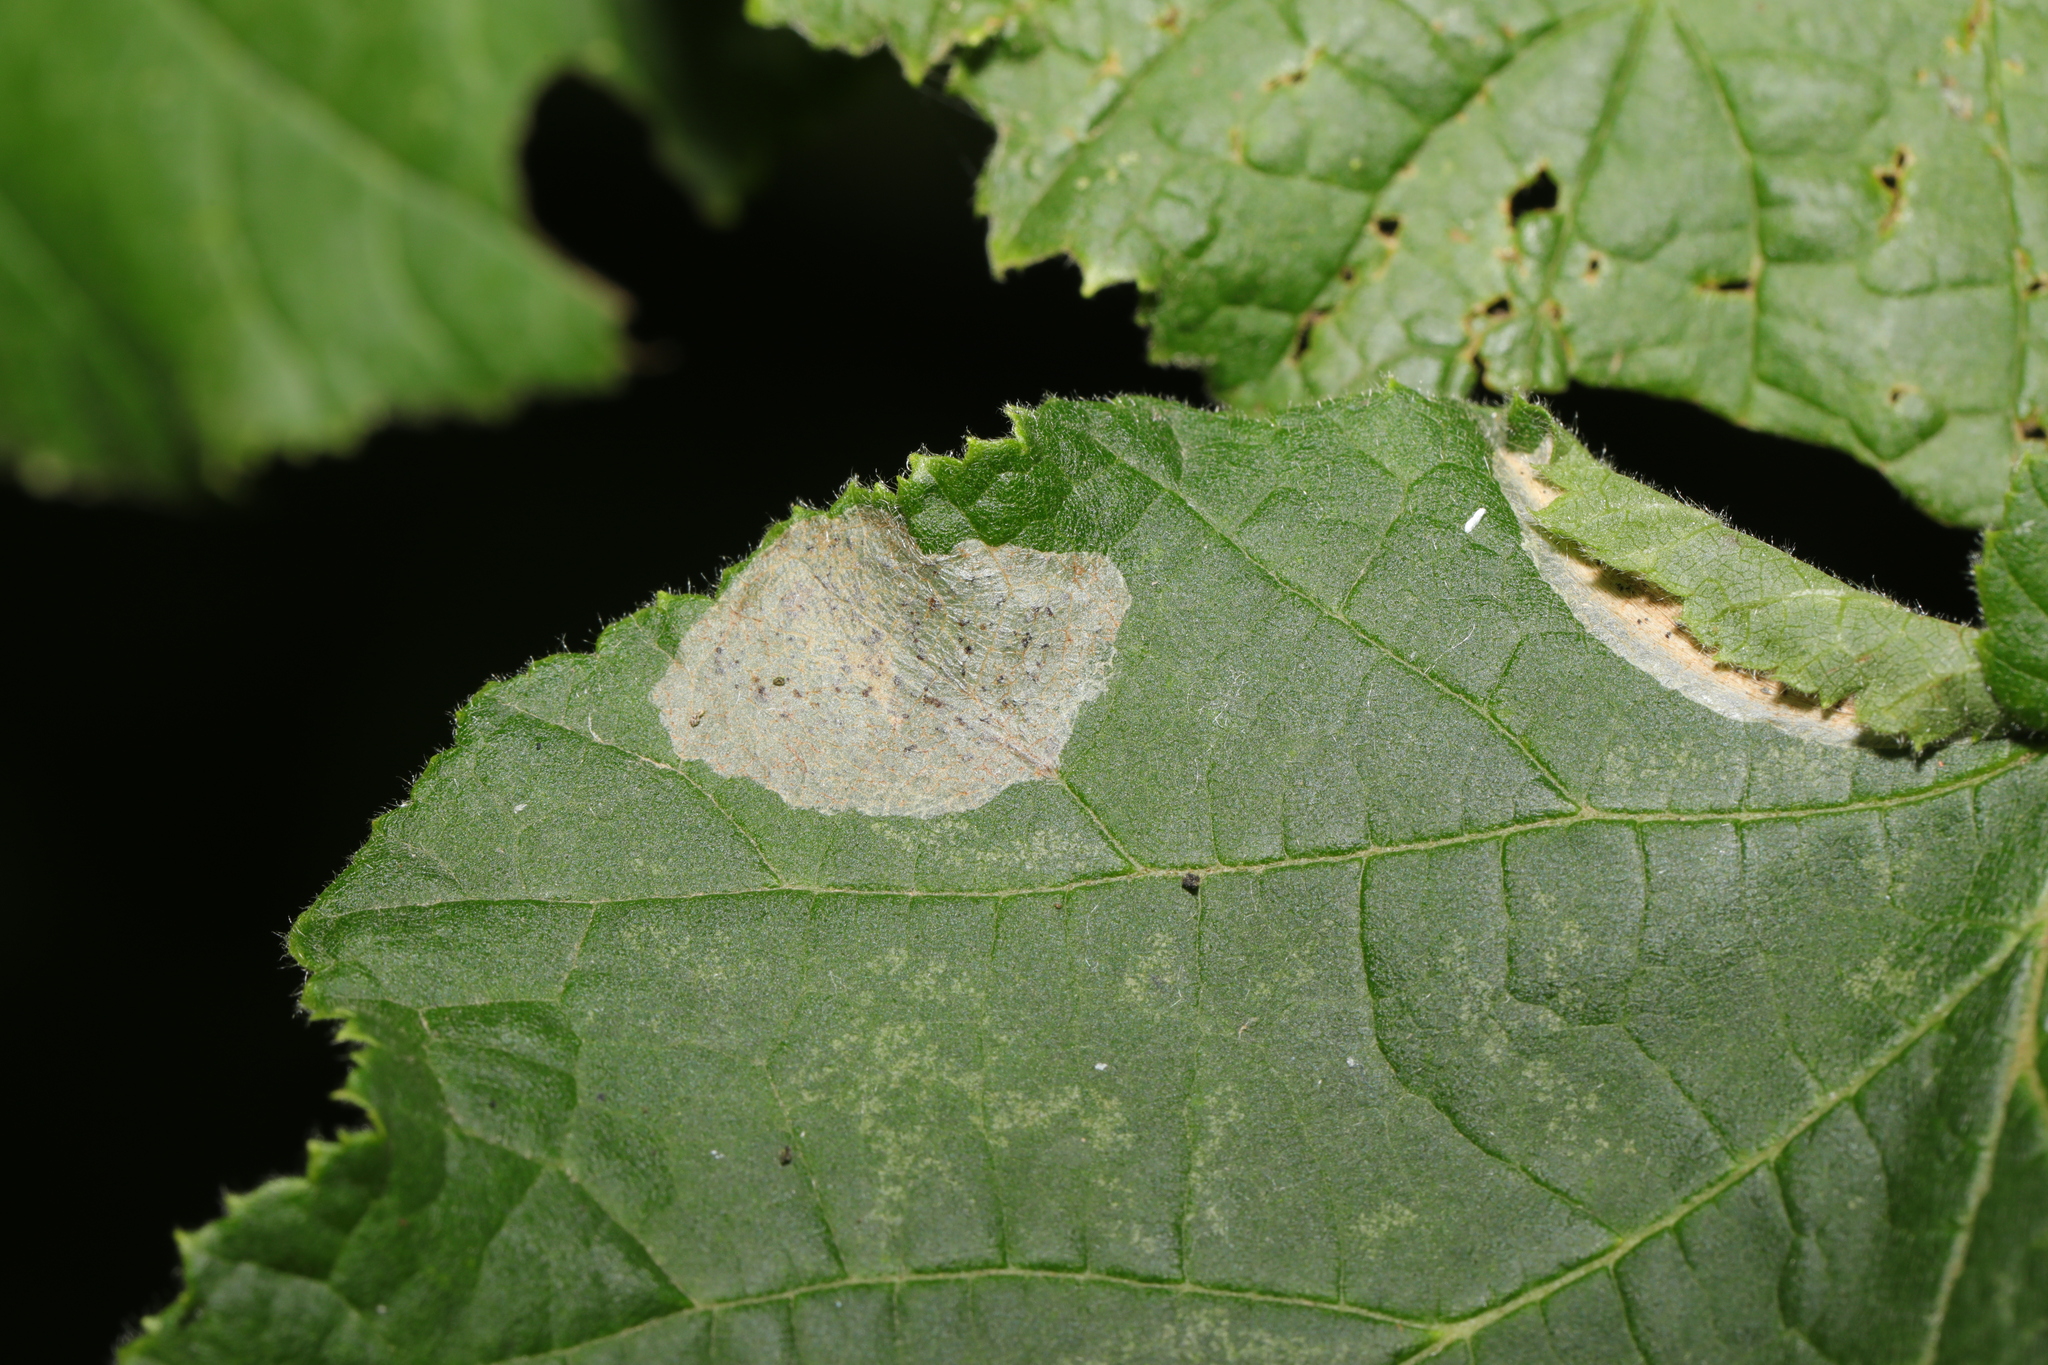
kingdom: Animalia
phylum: Arthropoda
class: Insecta
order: Lepidoptera
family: Gracillariidae
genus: Phyllonorycter
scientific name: Phyllonorycter coryli
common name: Nut-leaf blister moth
